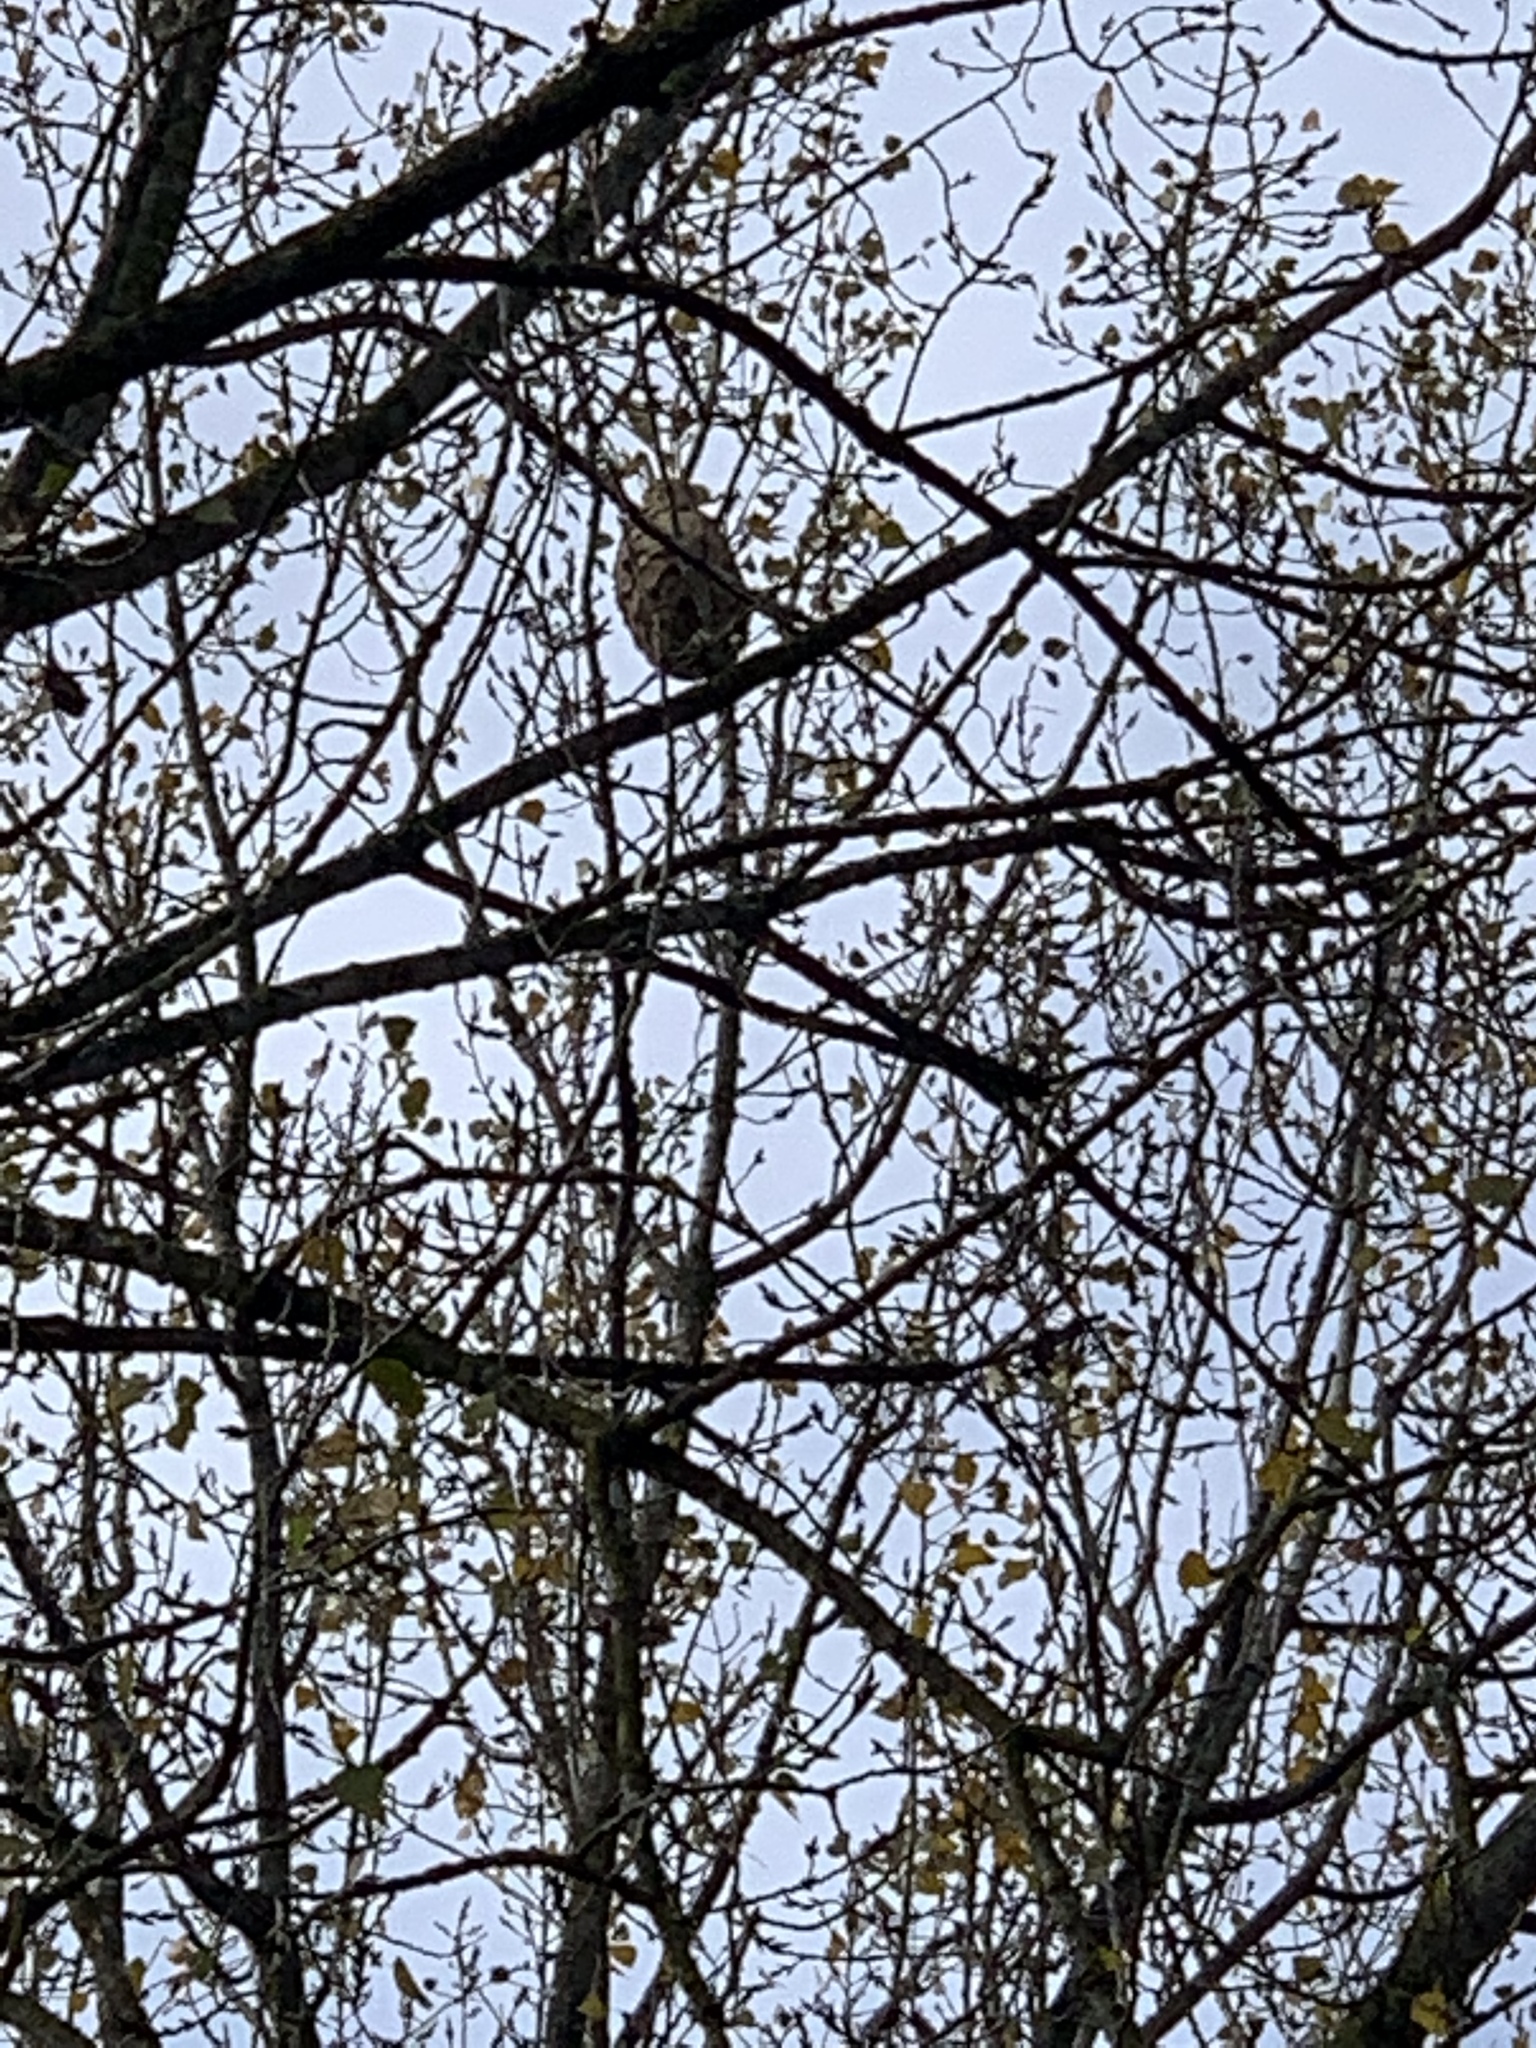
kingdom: Animalia
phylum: Arthropoda
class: Insecta
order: Hymenoptera
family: Vespidae
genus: Vespa
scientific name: Vespa velutina
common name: Asian hornet
